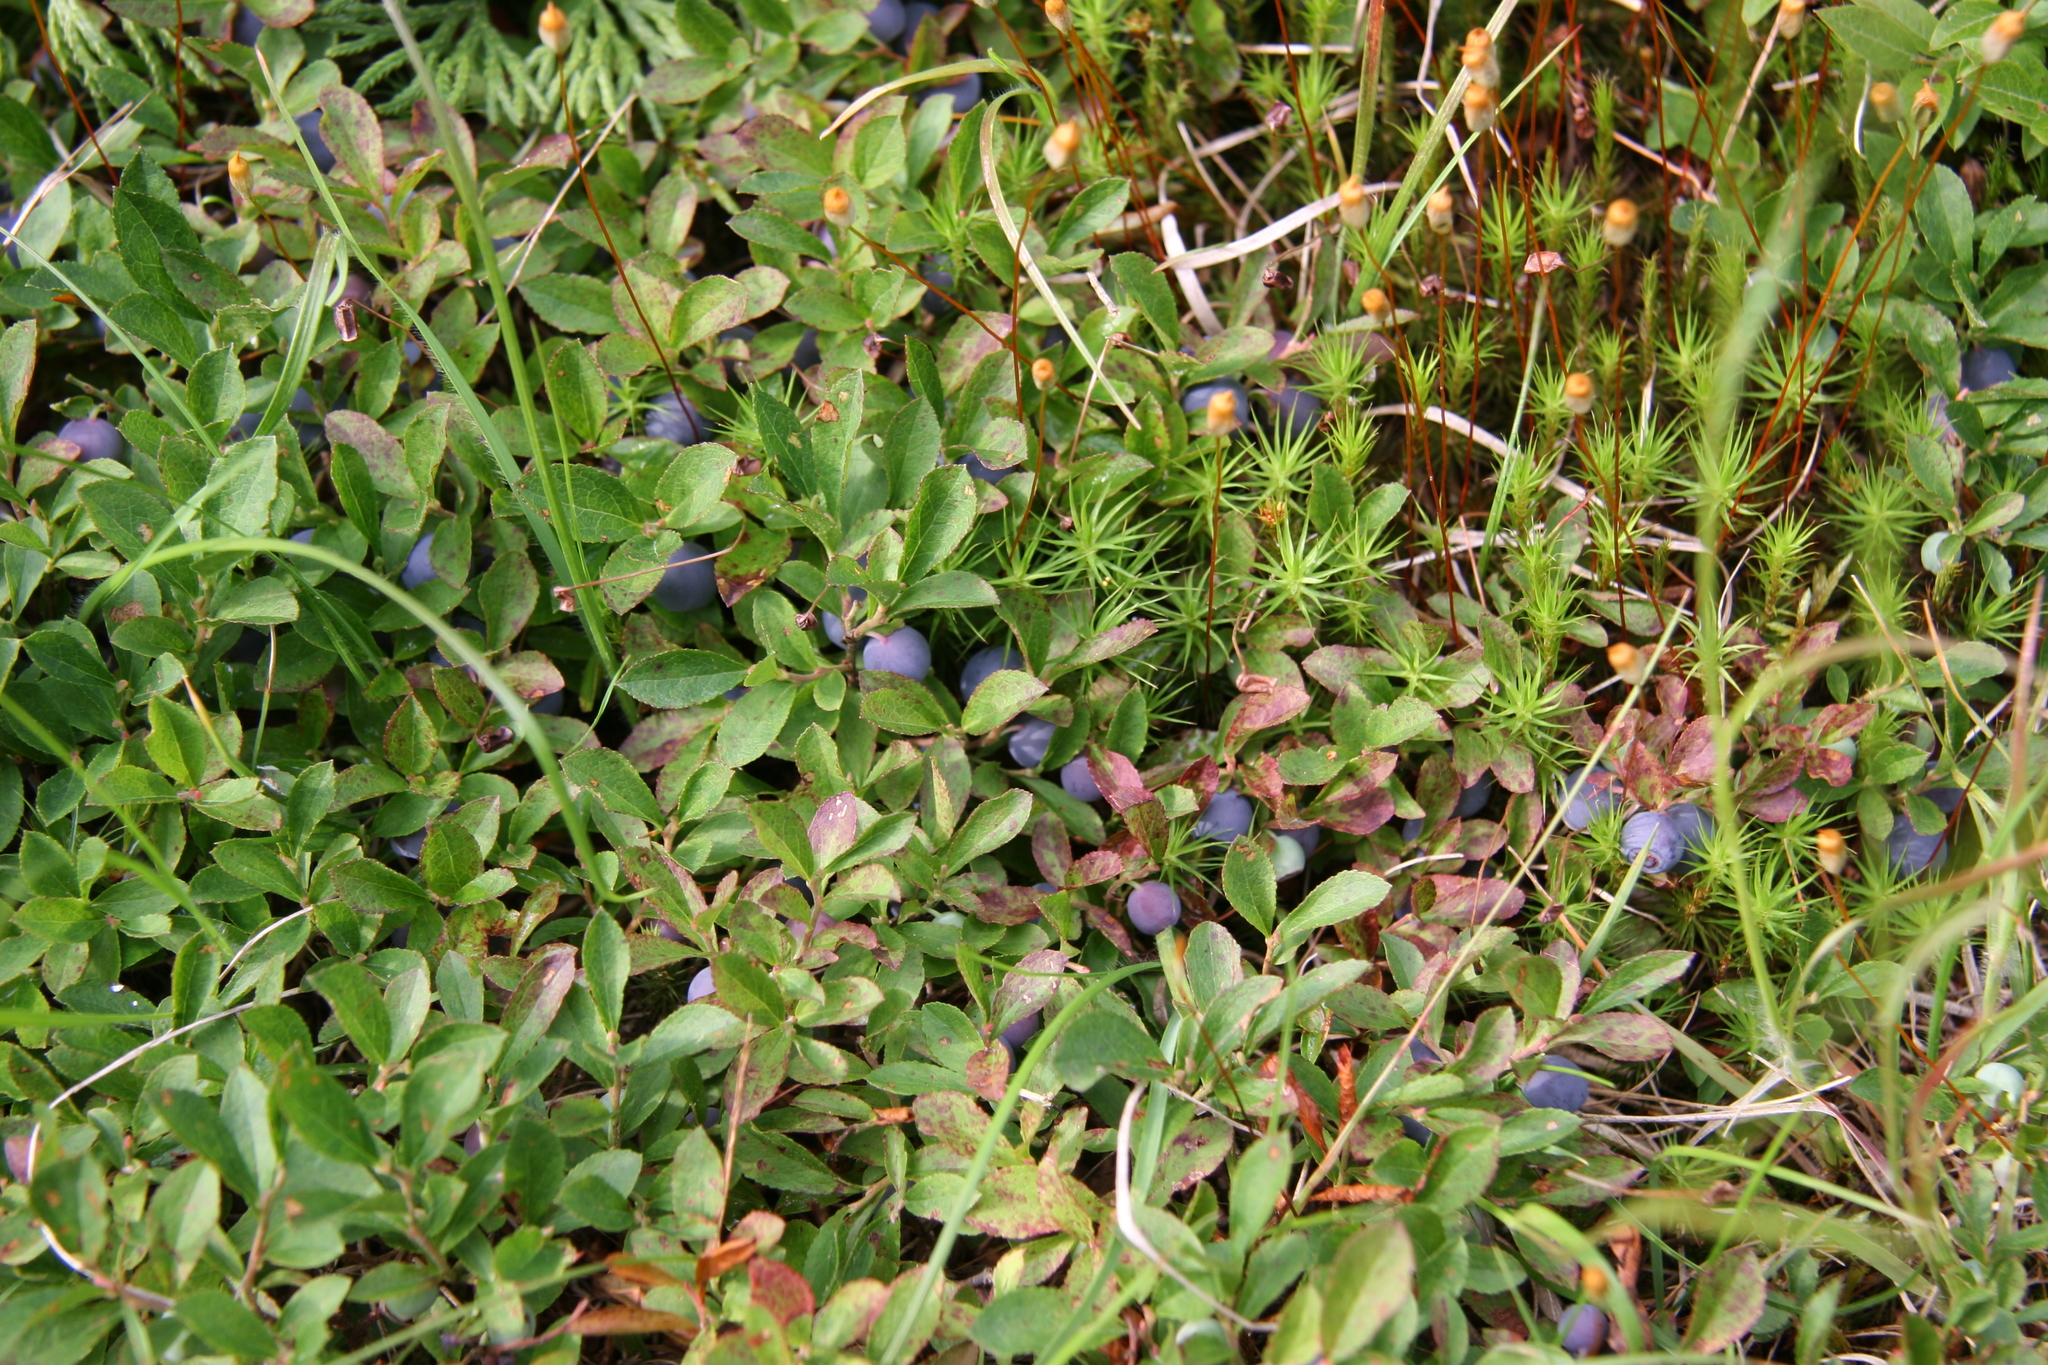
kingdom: Plantae
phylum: Tracheophyta
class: Magnoliopsida
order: Ericales
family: Ericaceae
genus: Vaccinium
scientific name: Vaccinium cespitosum
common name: Dwarf bilberry
